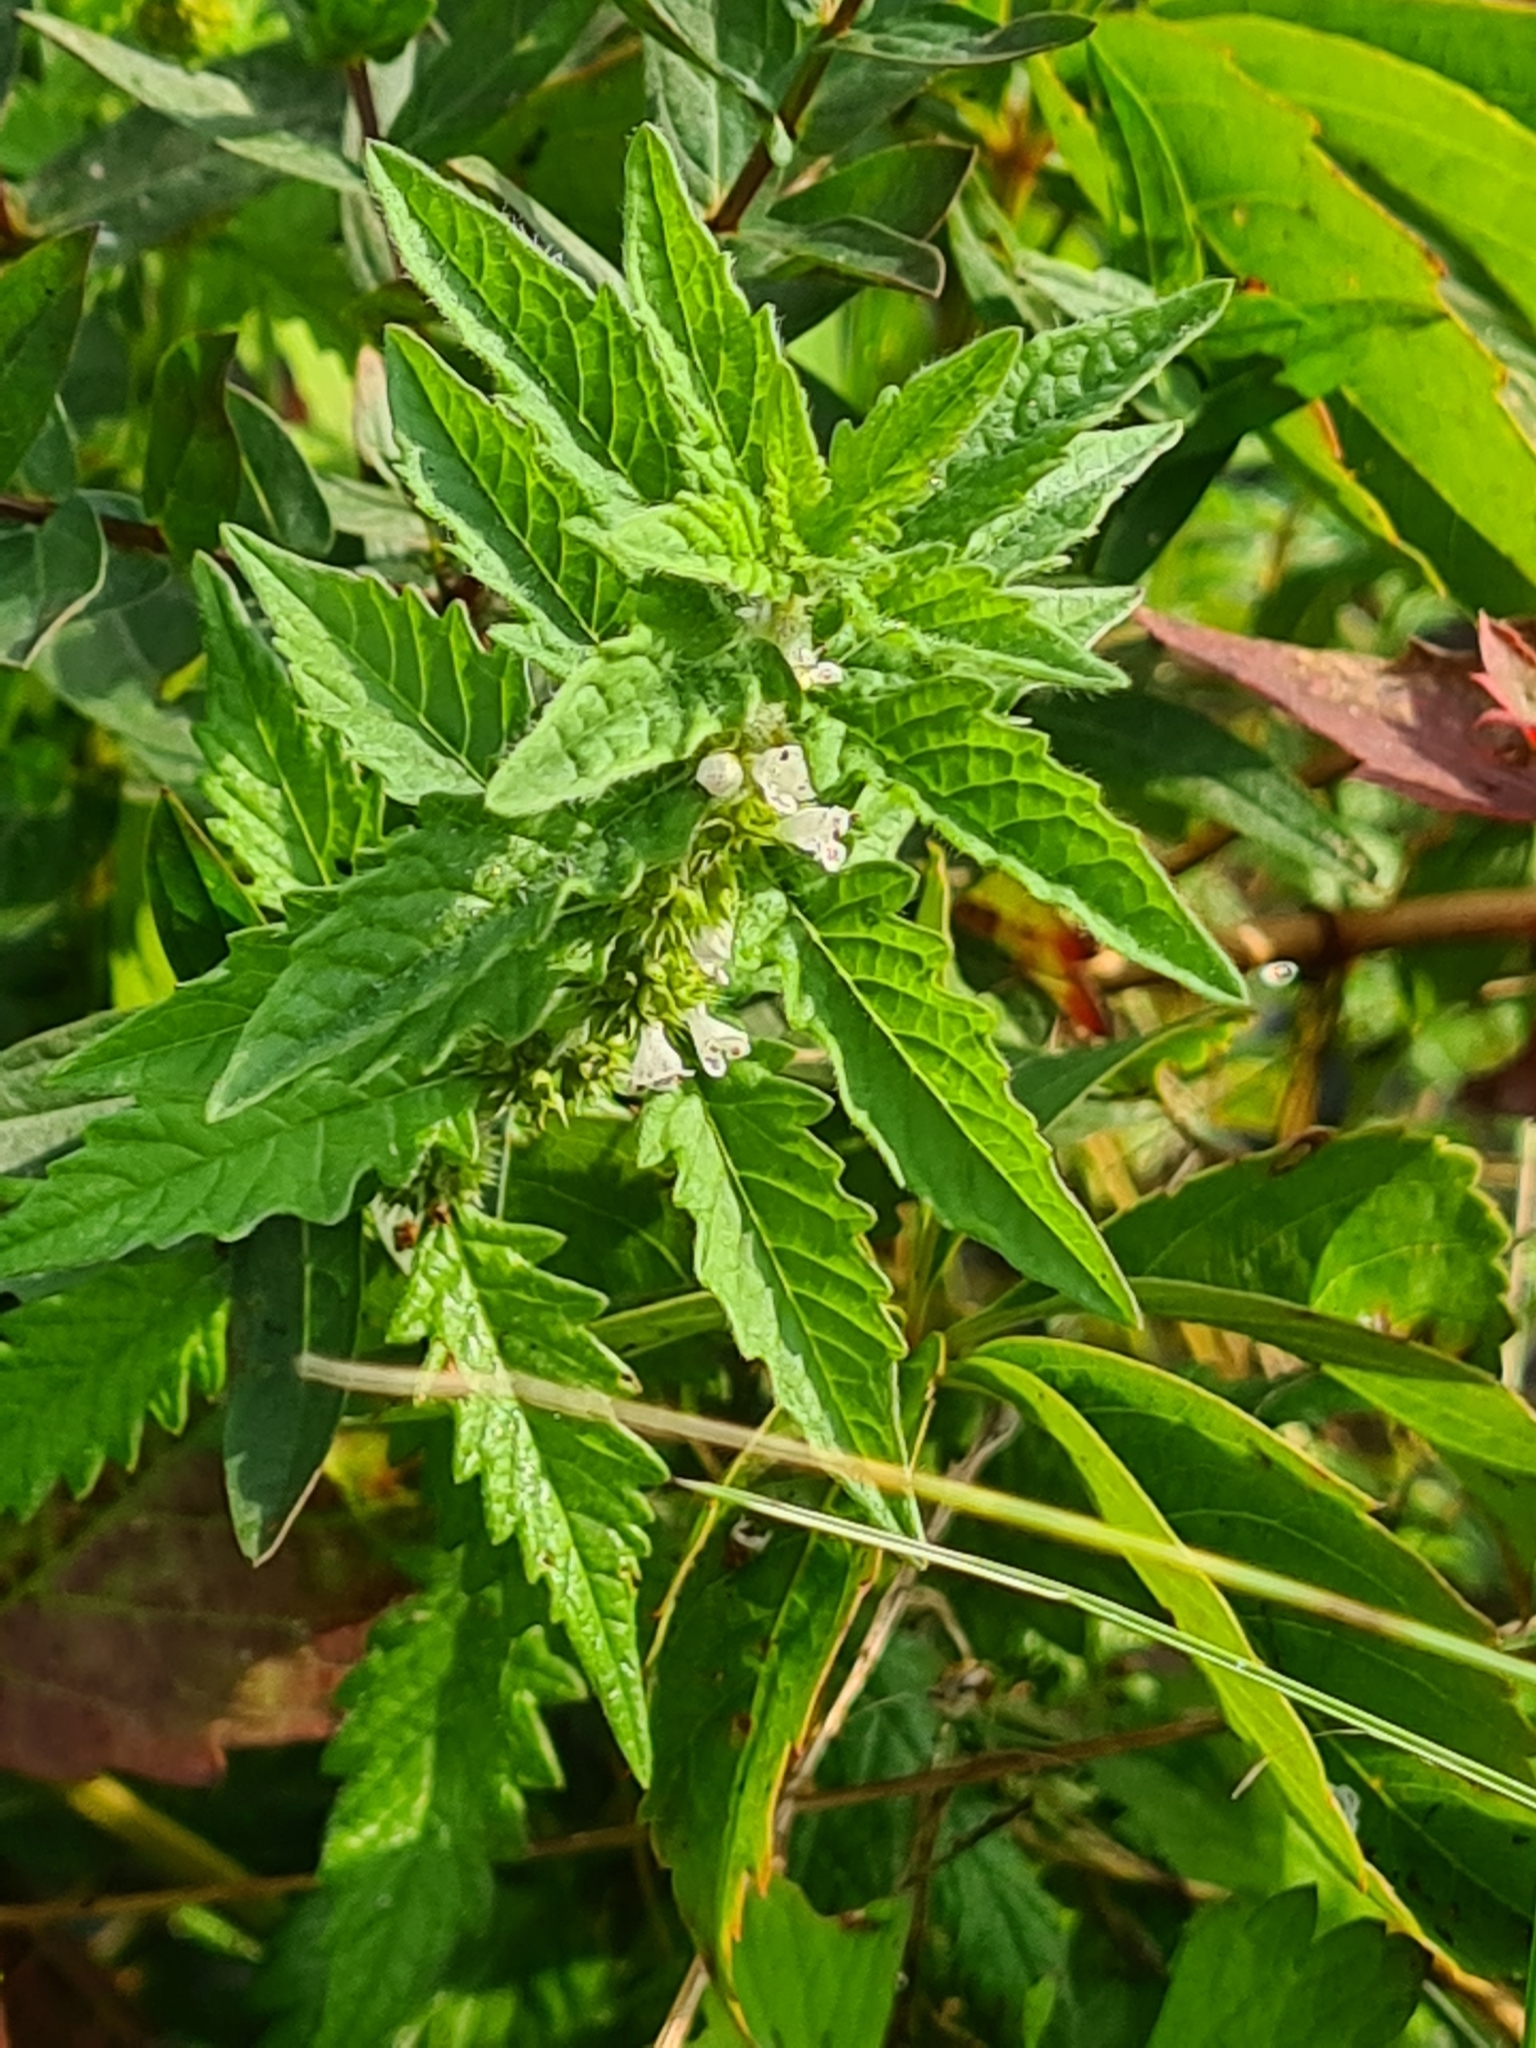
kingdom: Plantae
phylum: Tracheophyta
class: Magnoliopsida
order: Lamiales
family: Lamiaceae
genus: Lycopus
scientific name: Lycopus europaeus
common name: European bugleweed
